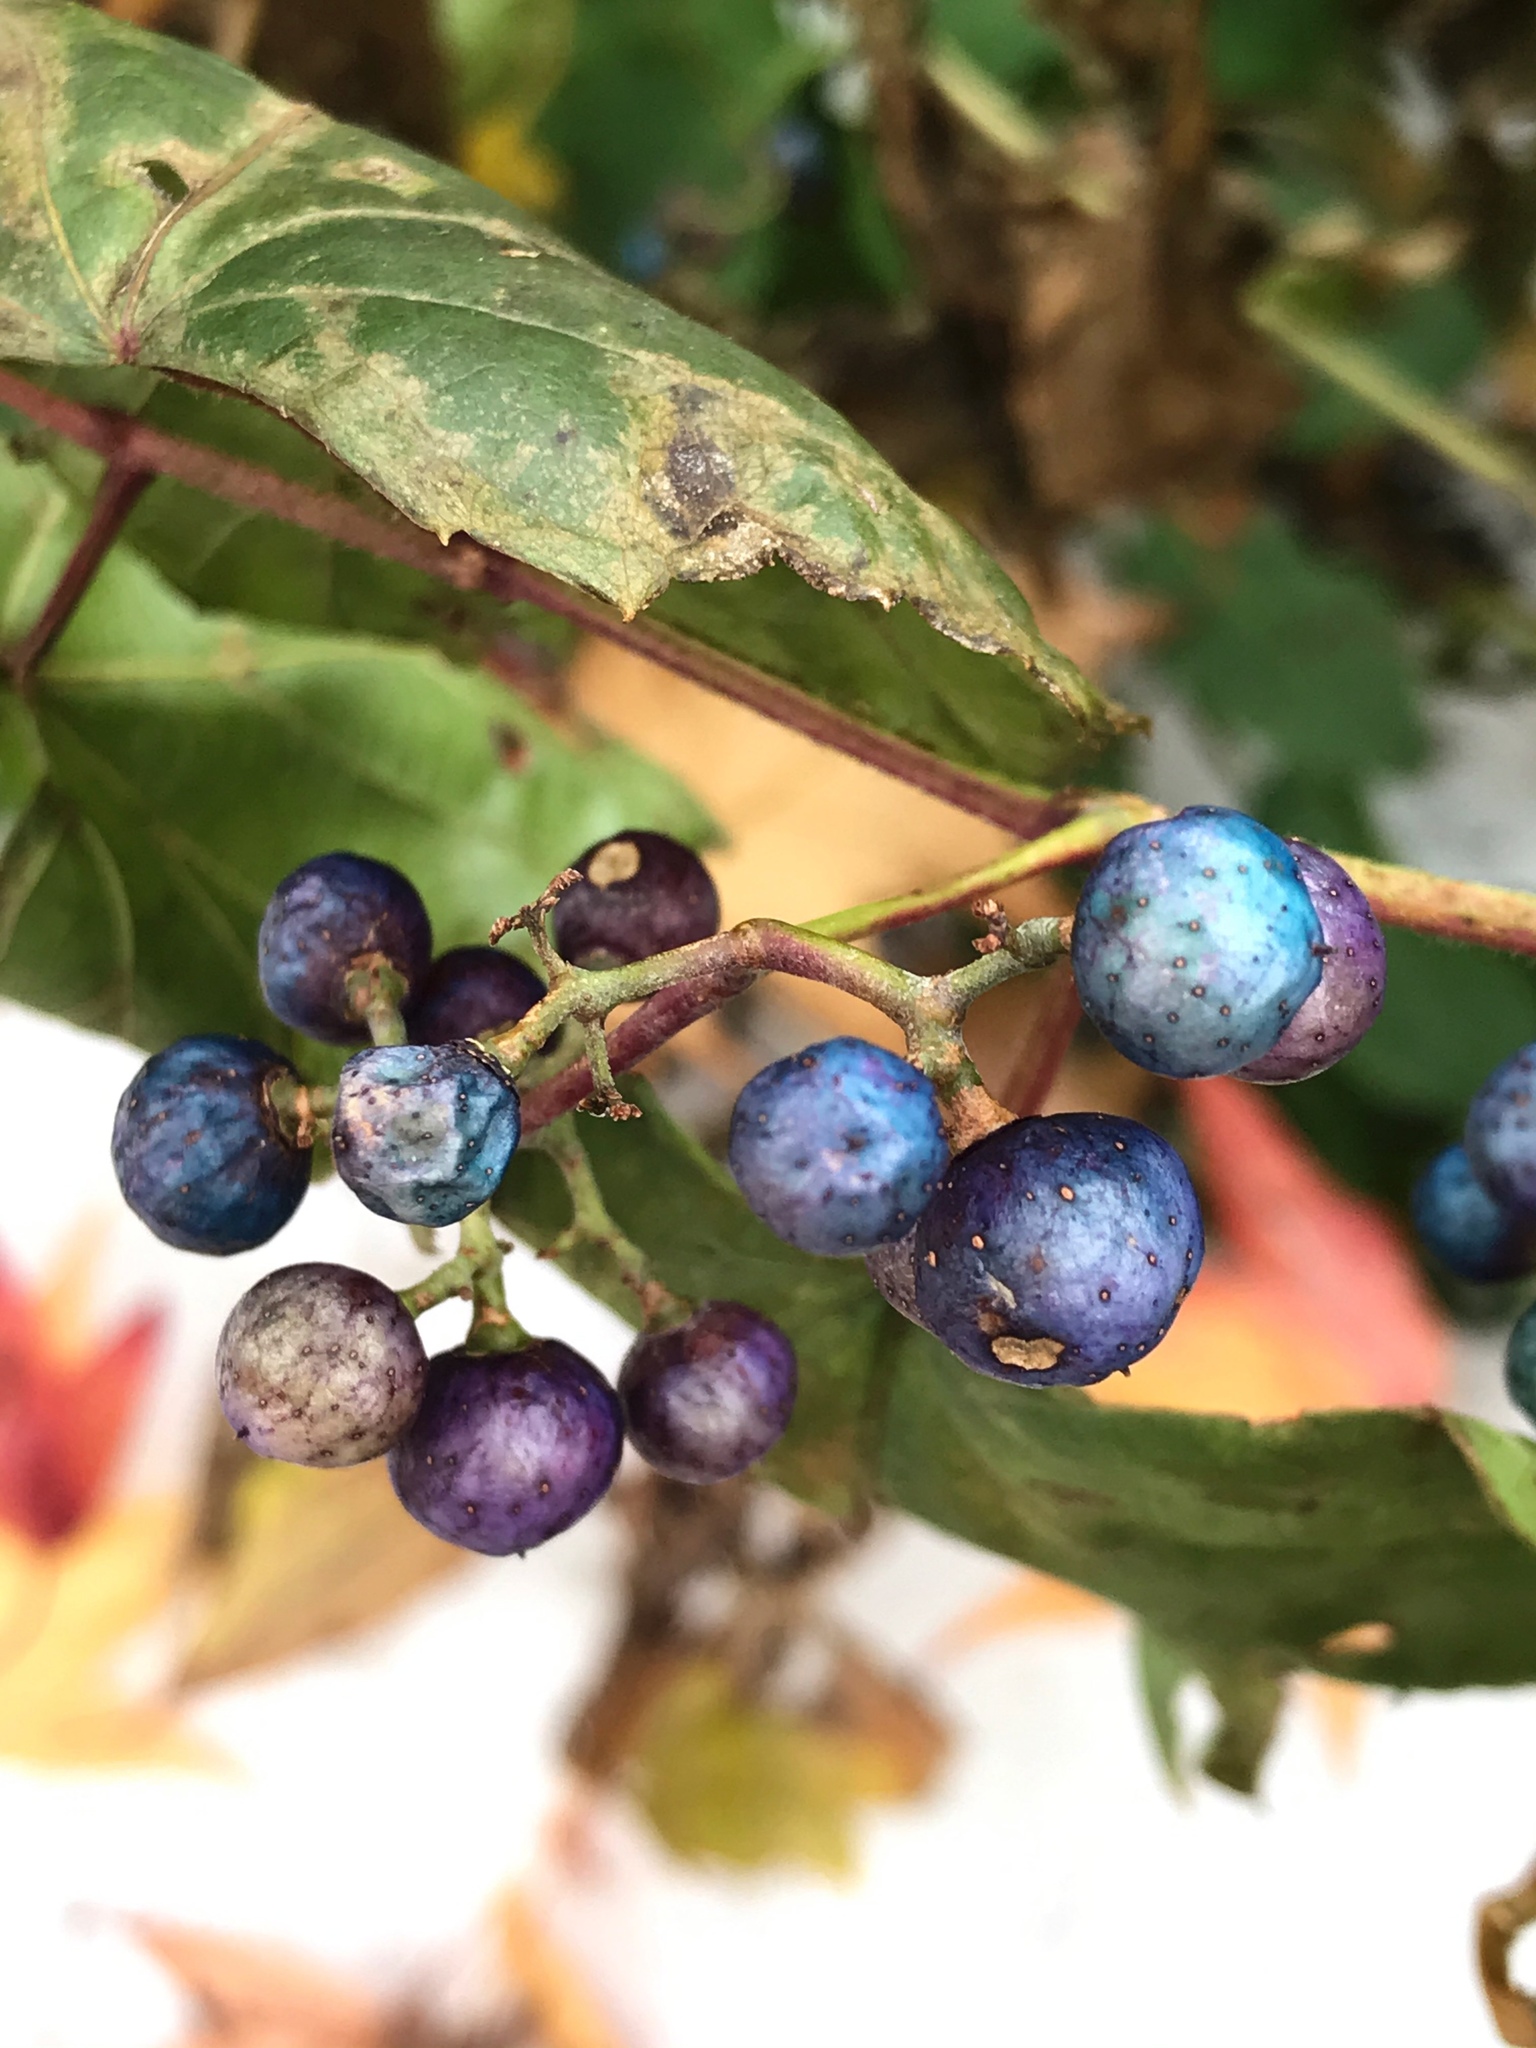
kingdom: Plantae
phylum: Tracheophyta
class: Magnoliopsida
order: Vitales
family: Vitaceae
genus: Ampelopsis
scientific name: Ampelopsis glandulosa
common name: Amur peppervine
